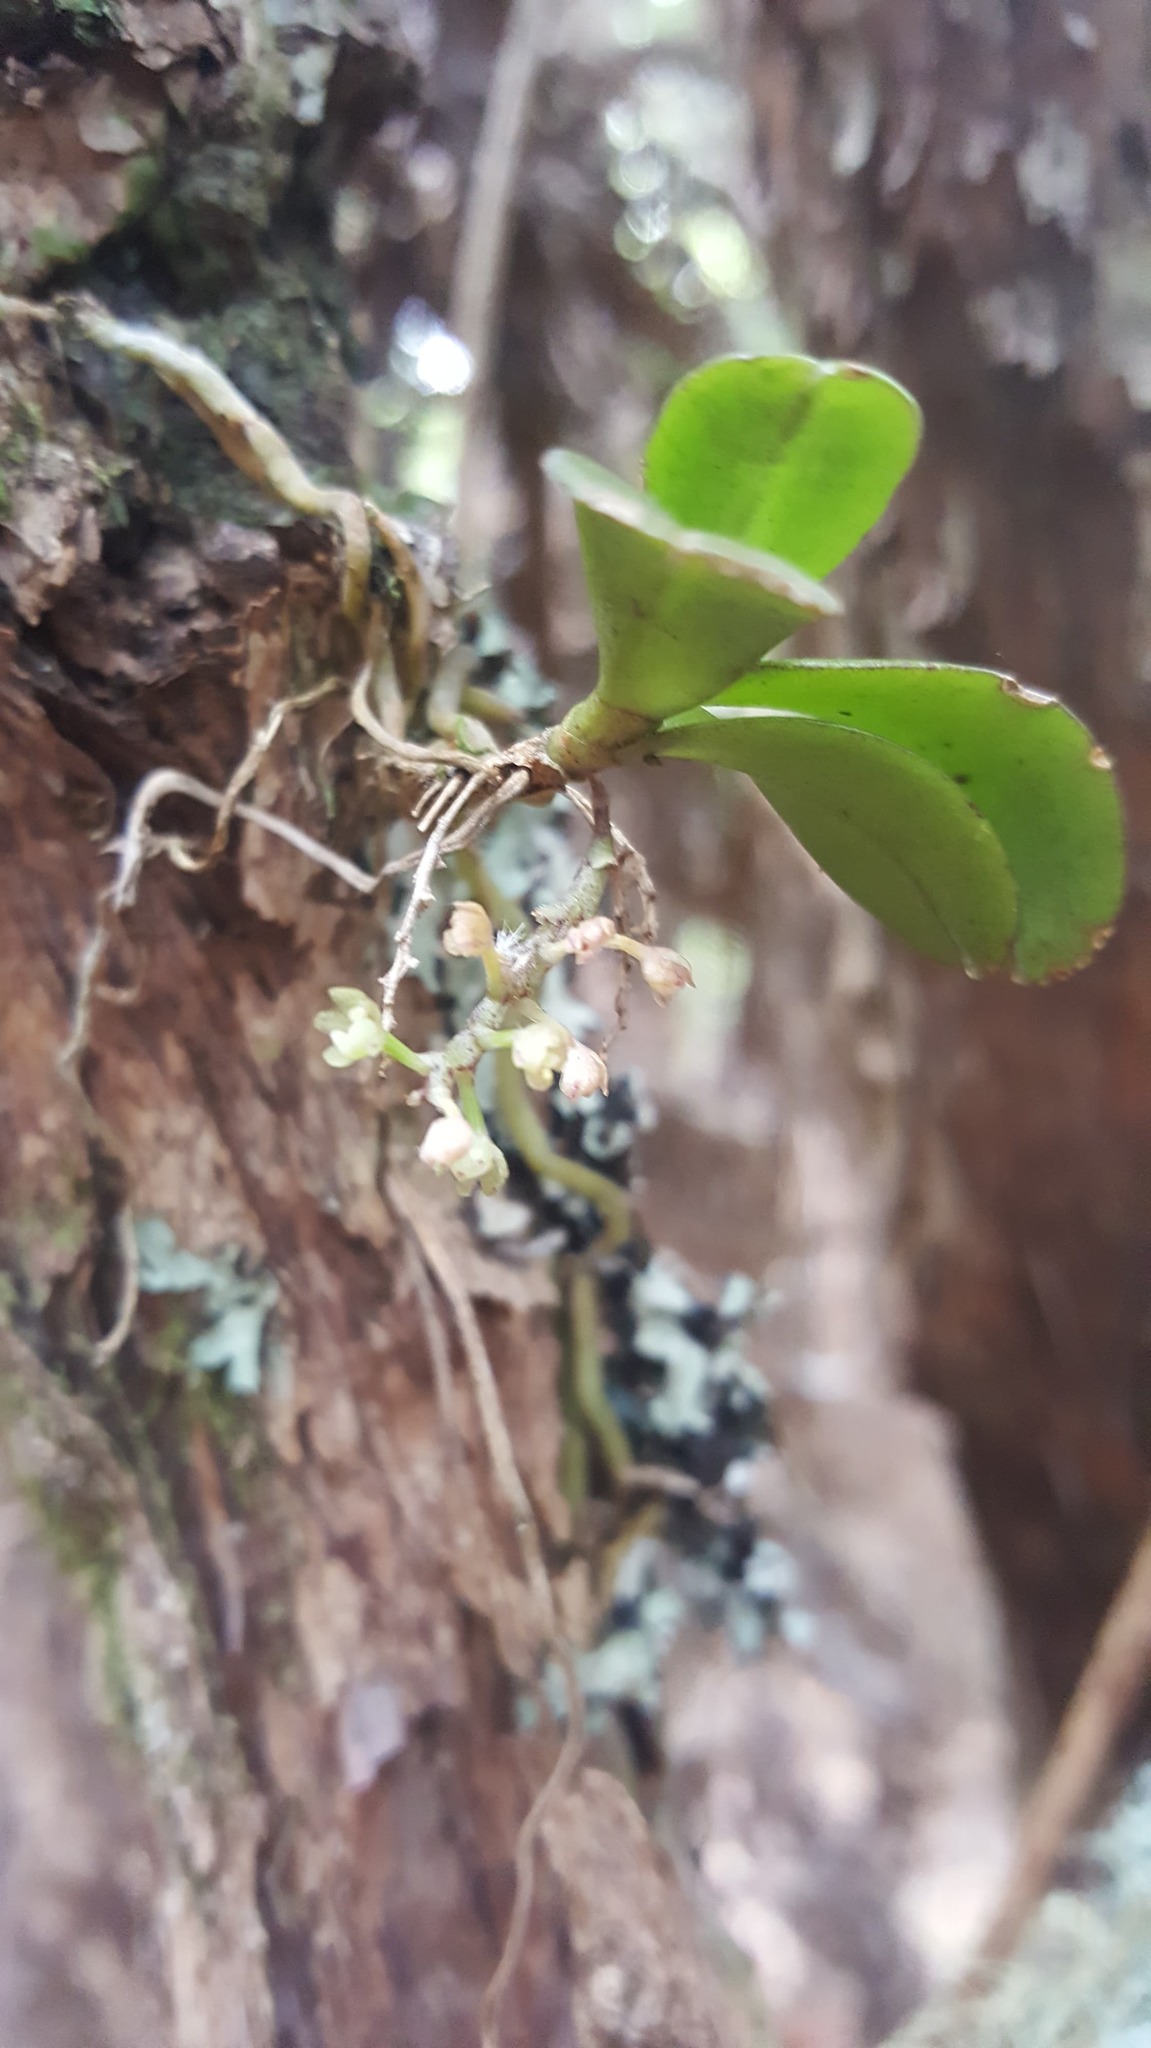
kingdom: Plantae
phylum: Tracheophyta
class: Liliopsida
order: Asparagales
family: Orchidaceae
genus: Drymoanthus
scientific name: Drymoanthus adversus
